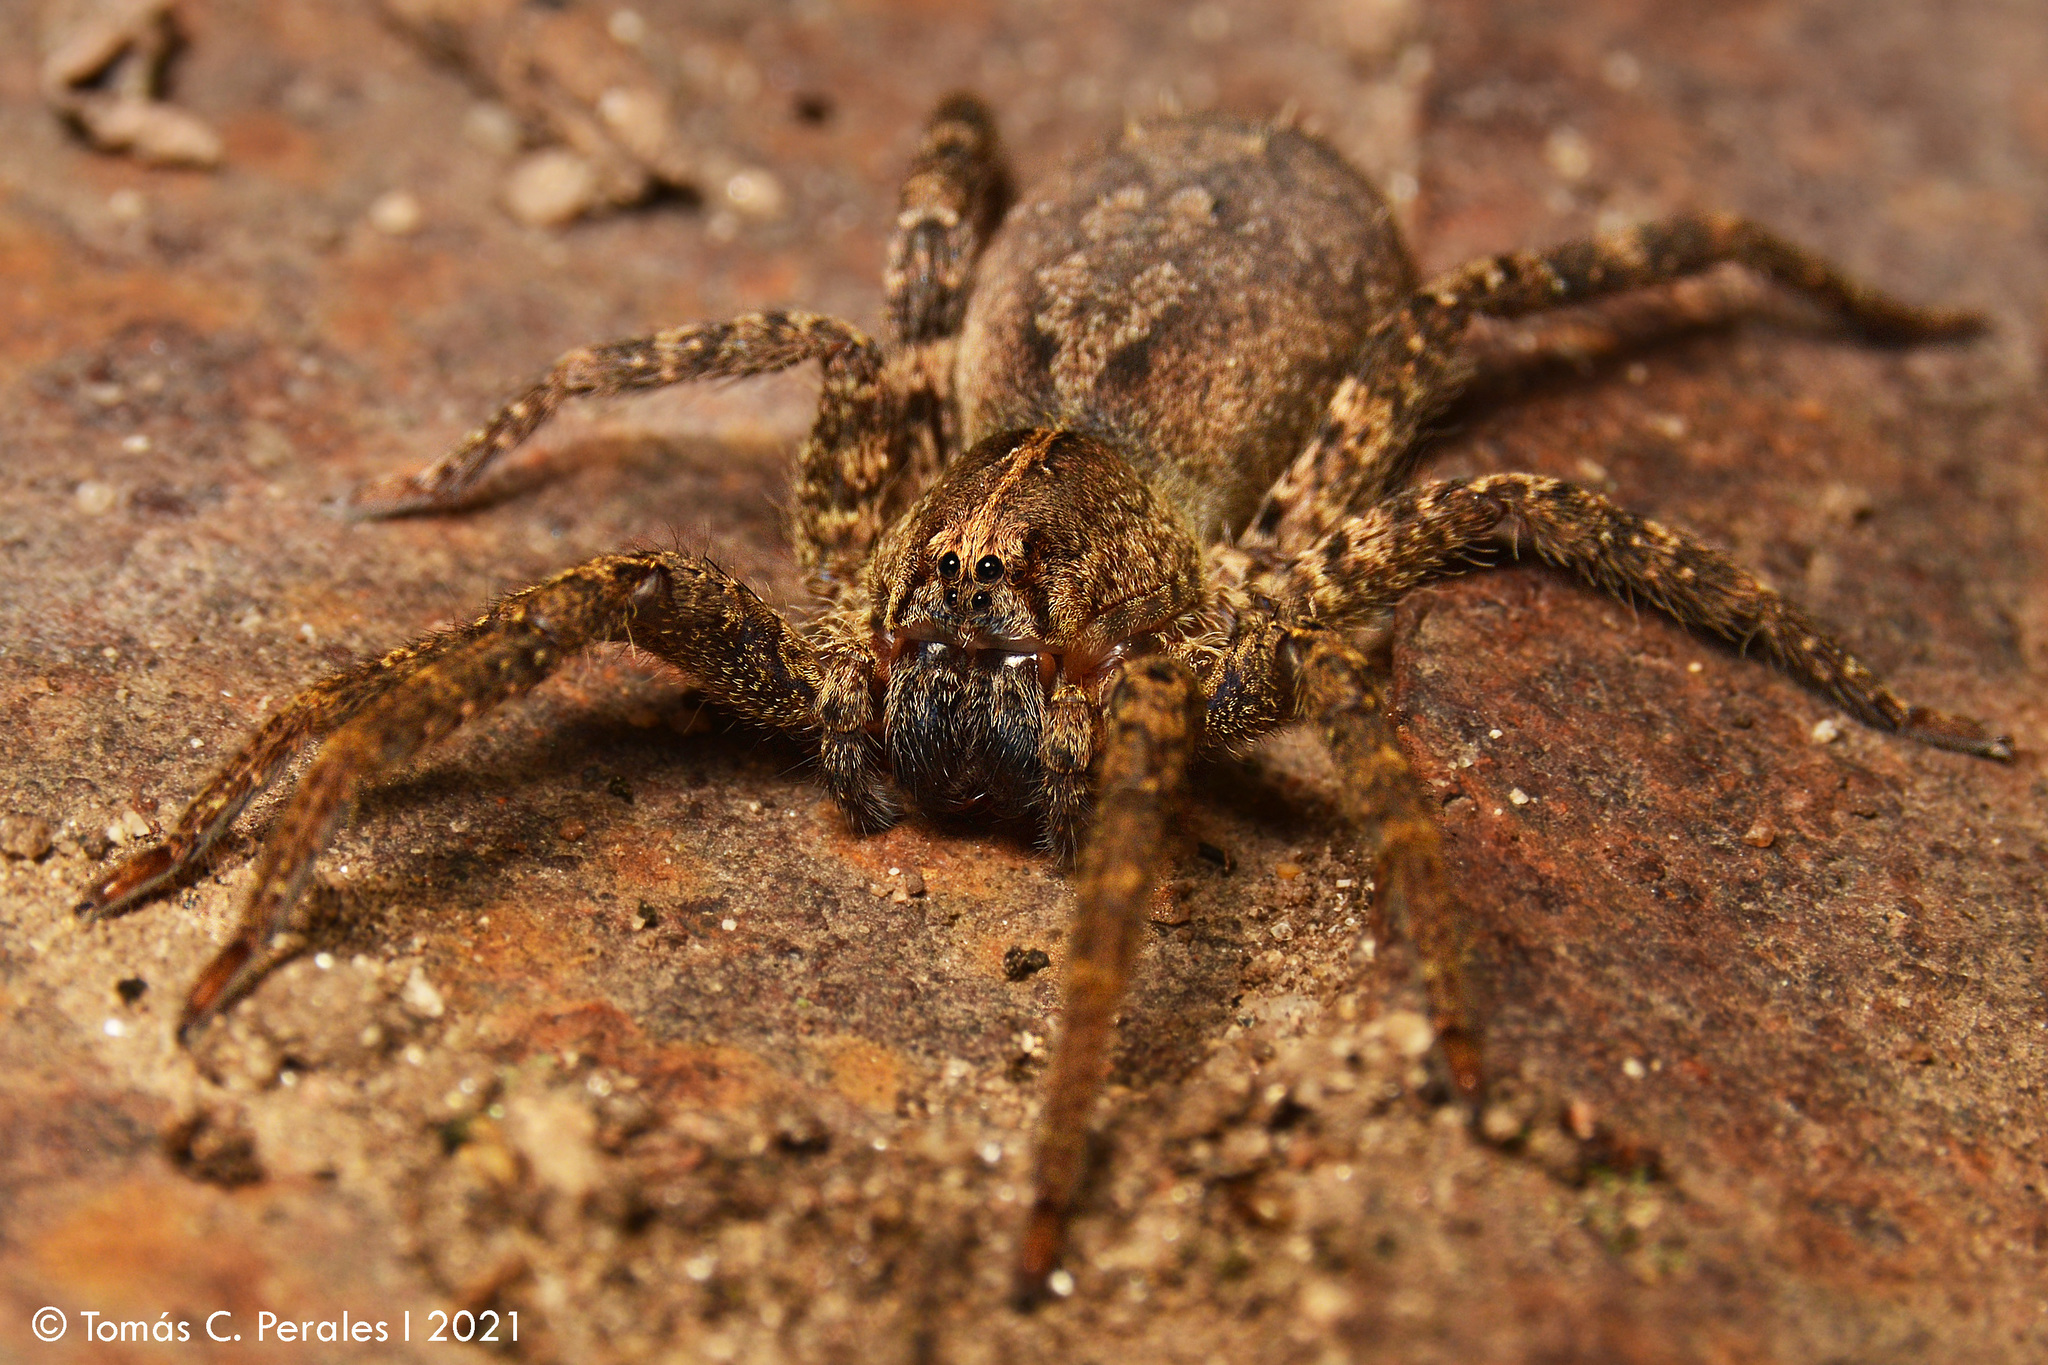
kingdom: Animalia
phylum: Arthropoda
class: Arachnida
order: Araneae
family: Ctenidae
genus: Parabatinga
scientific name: Parabatinga brevipes
